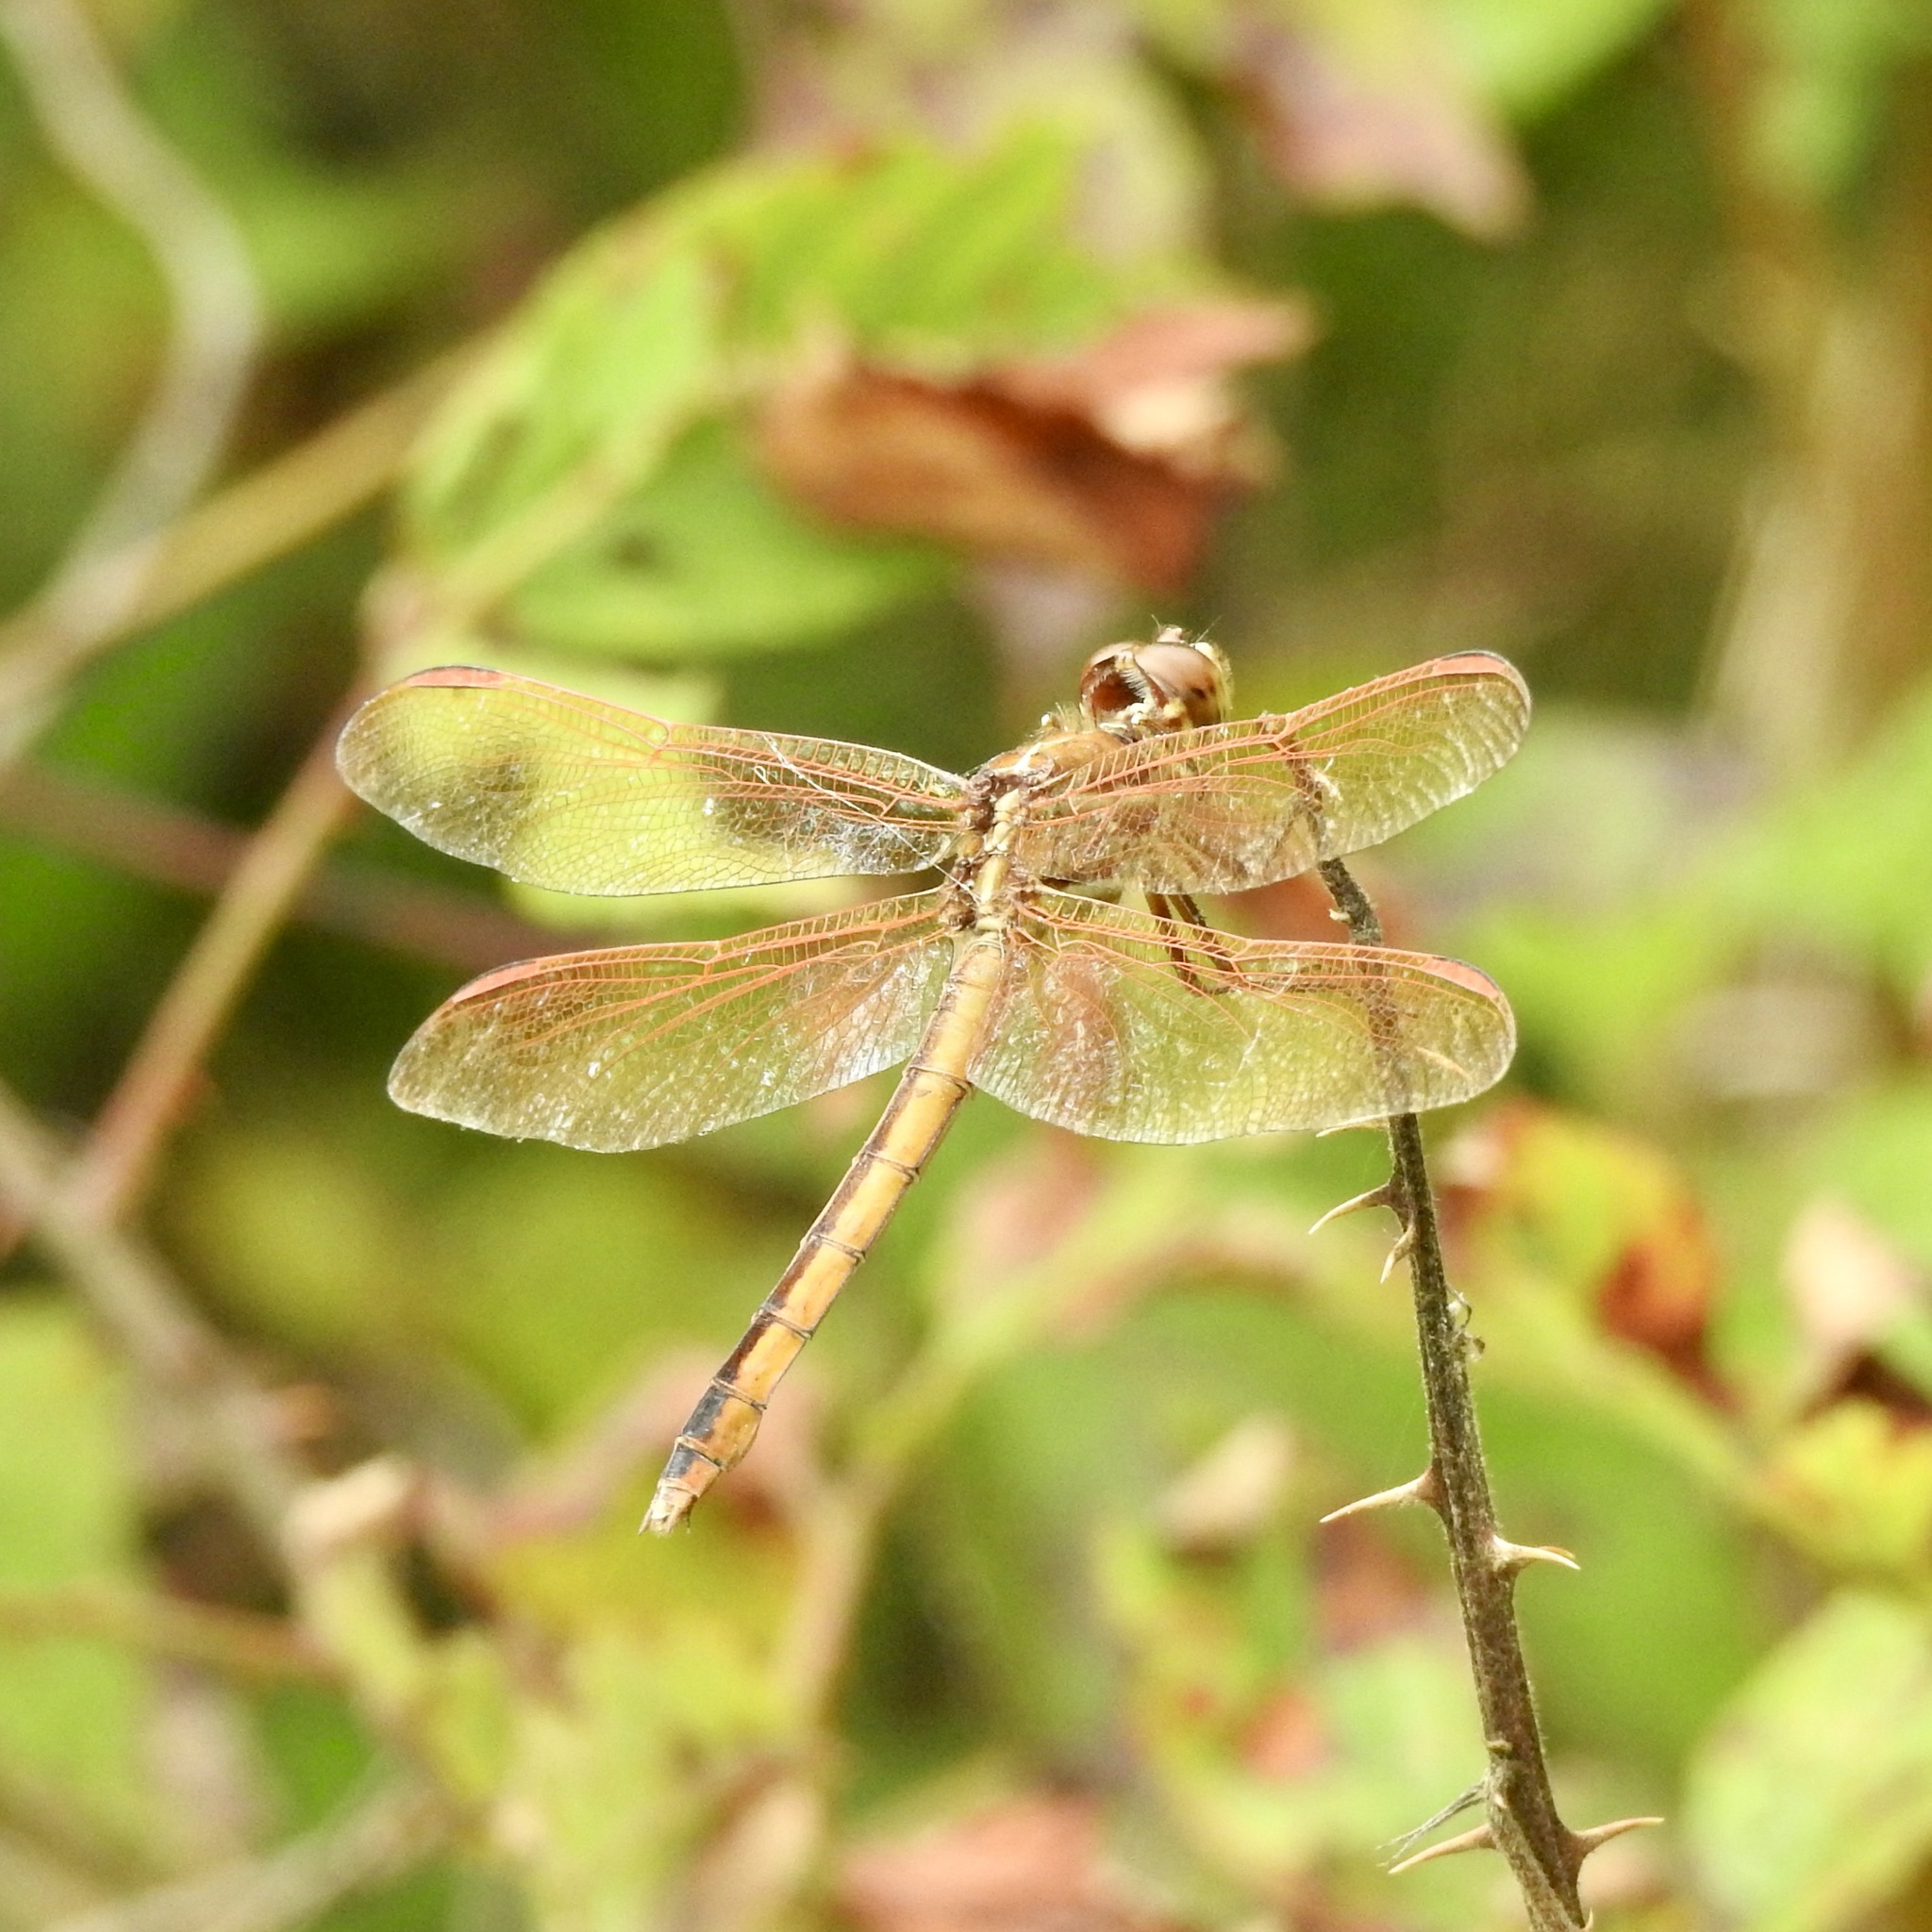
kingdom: Animalia
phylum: Arthropoda
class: Insecta
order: Odonata
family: Libellulidae
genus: Libellula
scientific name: Libellula auripennis
